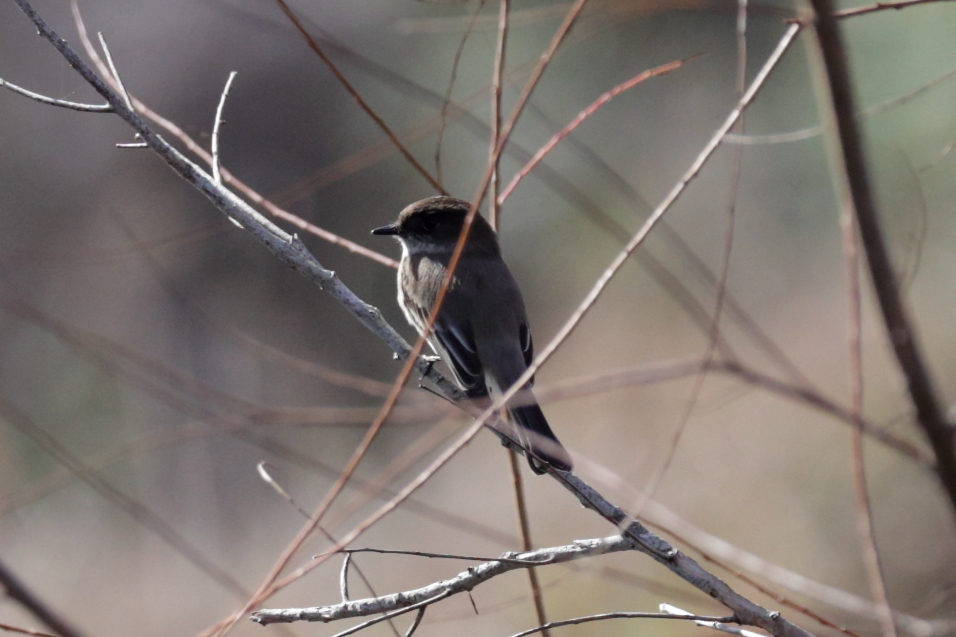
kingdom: Animalia
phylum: Chordata
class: Aves
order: Passeriformes
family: Tyrannidae
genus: Sayornis
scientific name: Sayornis phoebe
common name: Eastern phoebe
